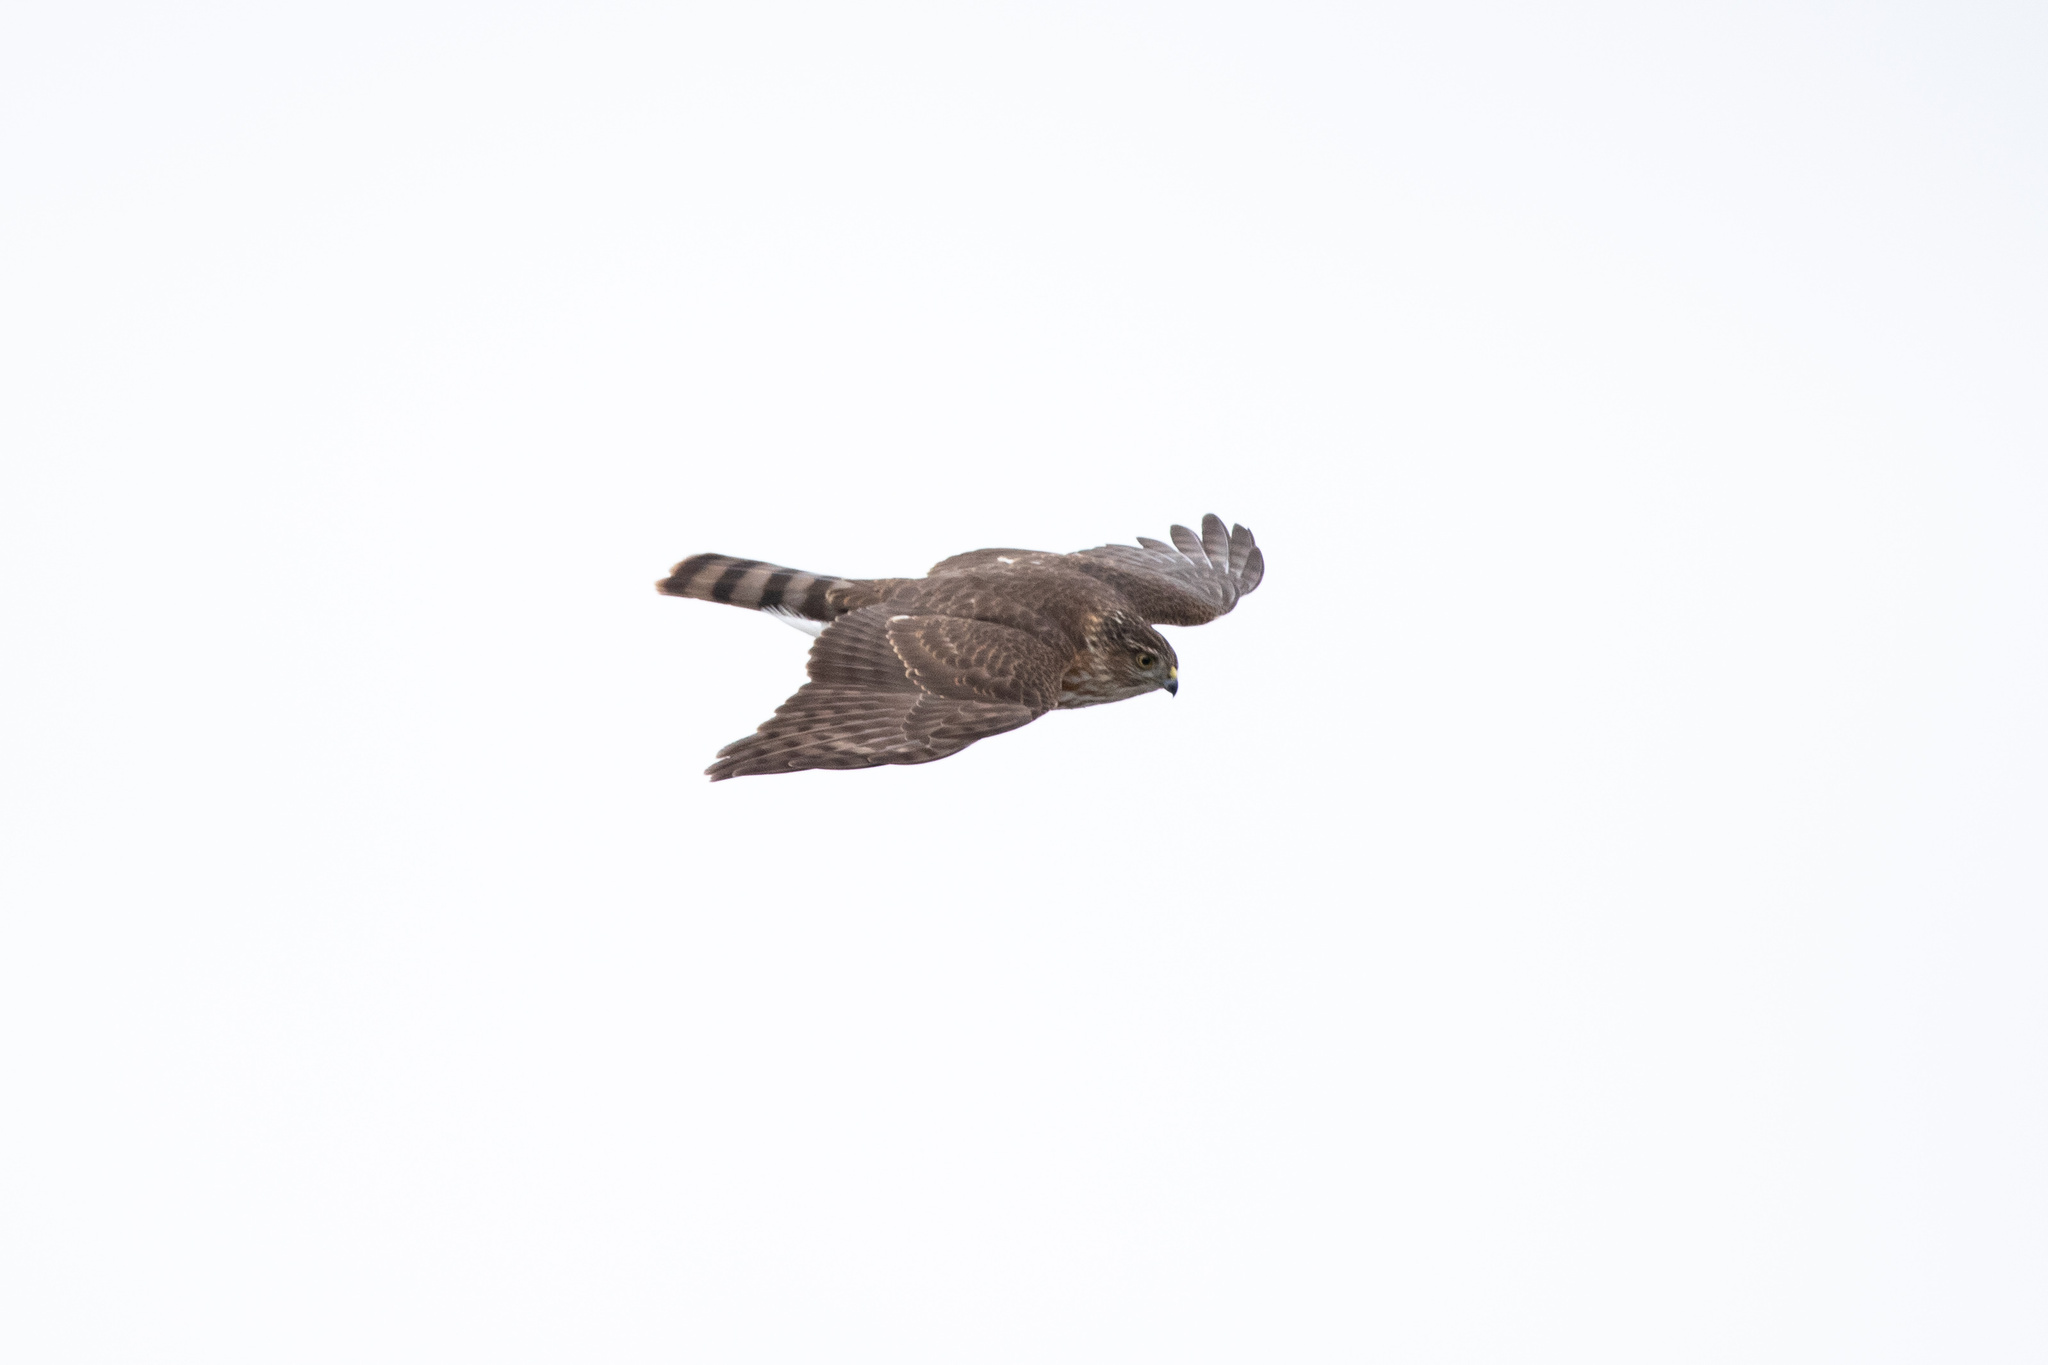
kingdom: Animalia
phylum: Chordata
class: Aves
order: Accipitriformes
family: Accipitridae
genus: Accipiter
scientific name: Accipiter striatus
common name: Sharp-shinned hawk
